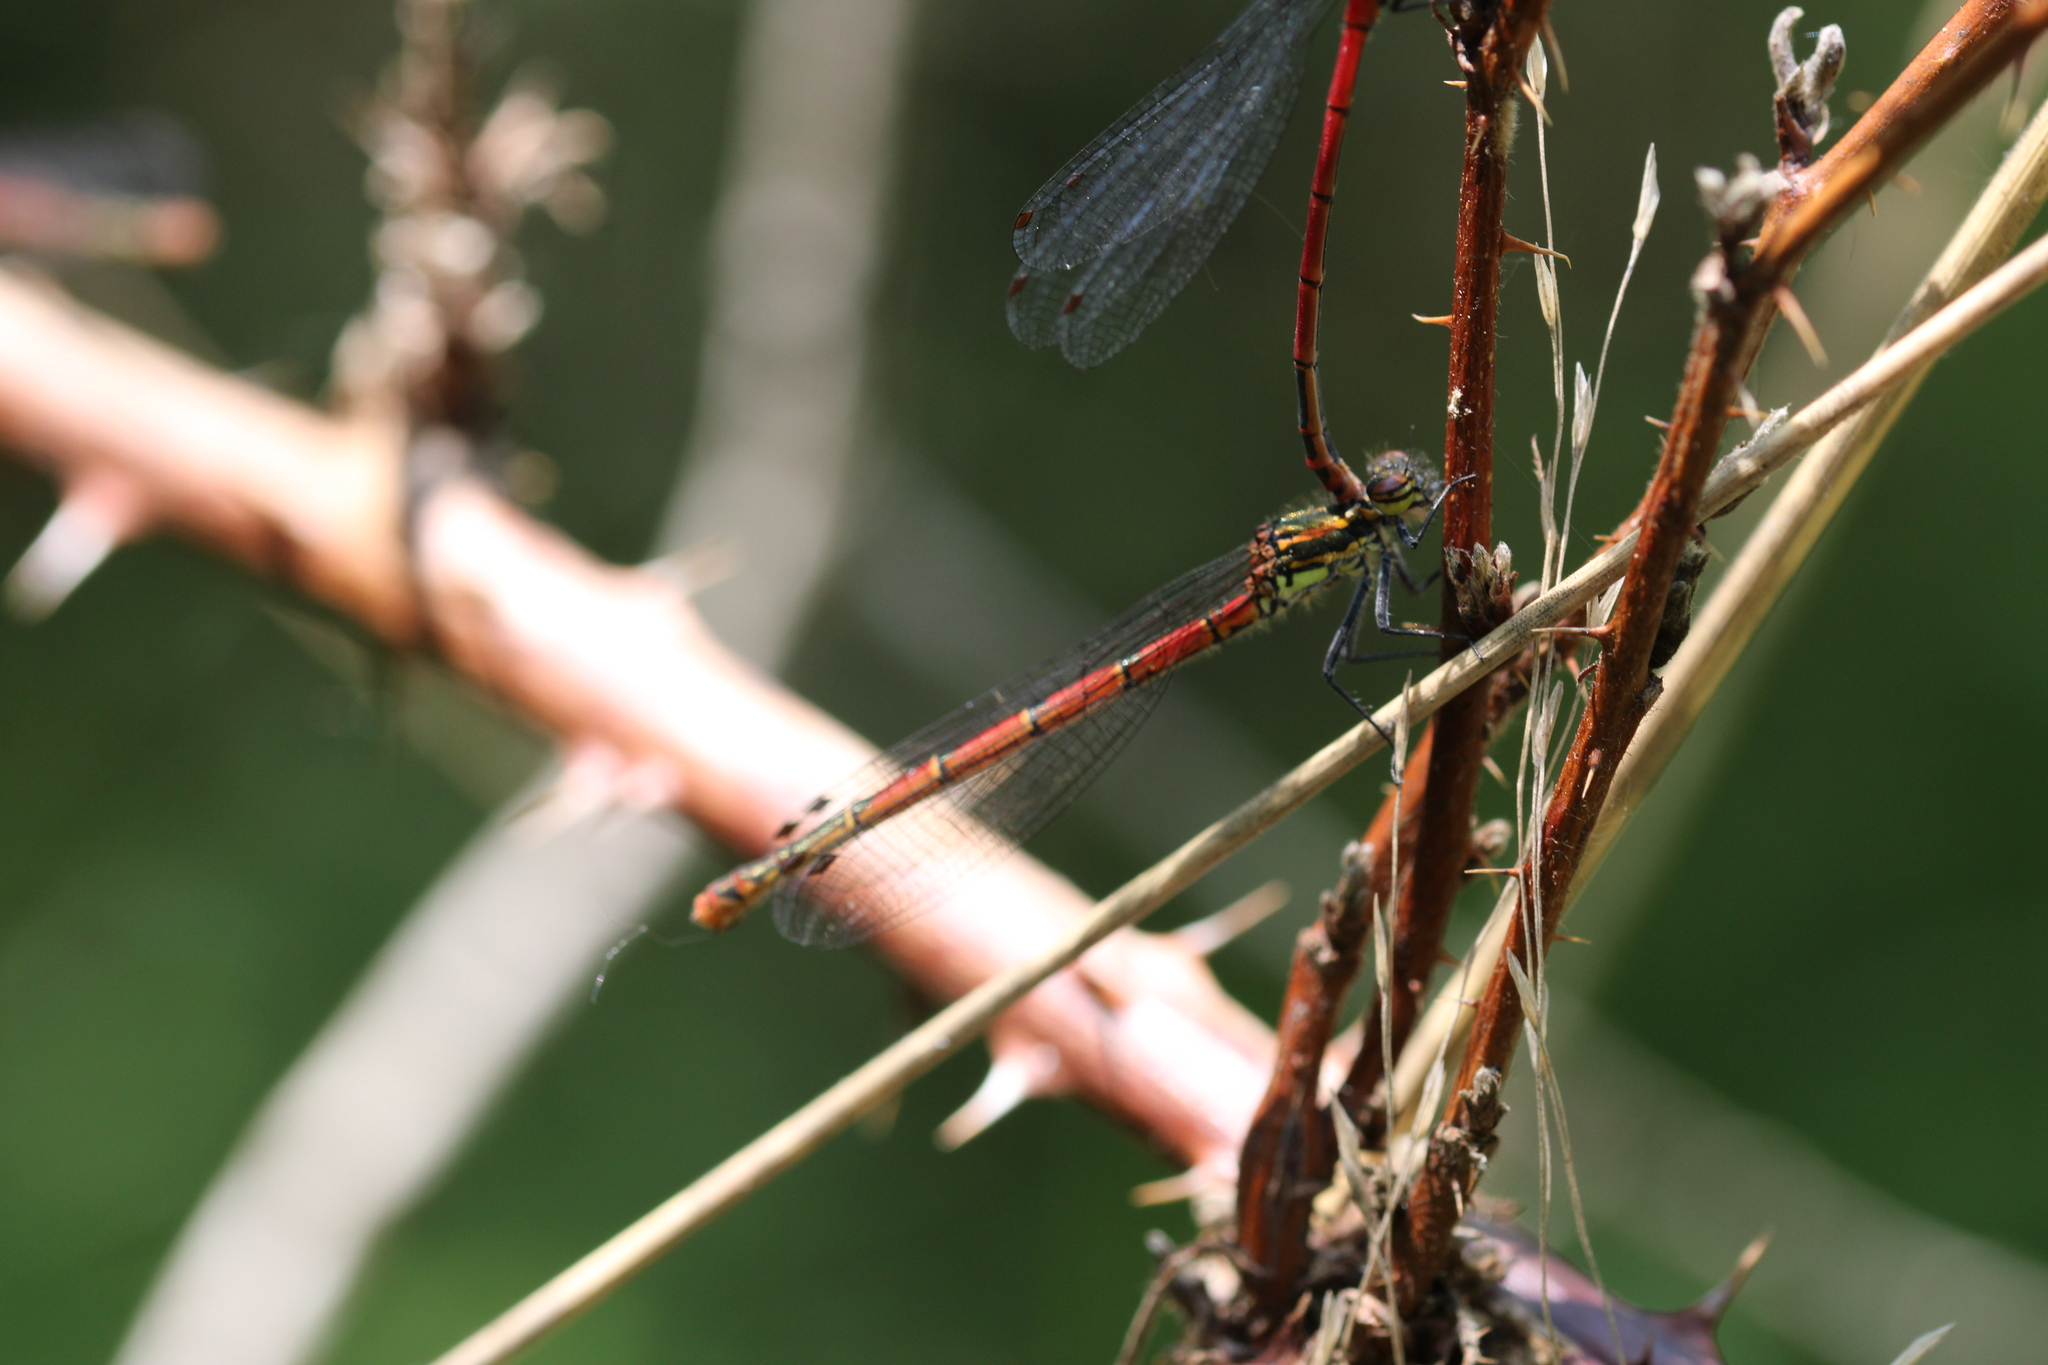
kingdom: Animalia
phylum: Arthropoda
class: Insecta
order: Odonata
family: Coenagrionidae
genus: Pyrrhosoma
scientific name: Pyrrhosoma nymphula
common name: Large red damsel
